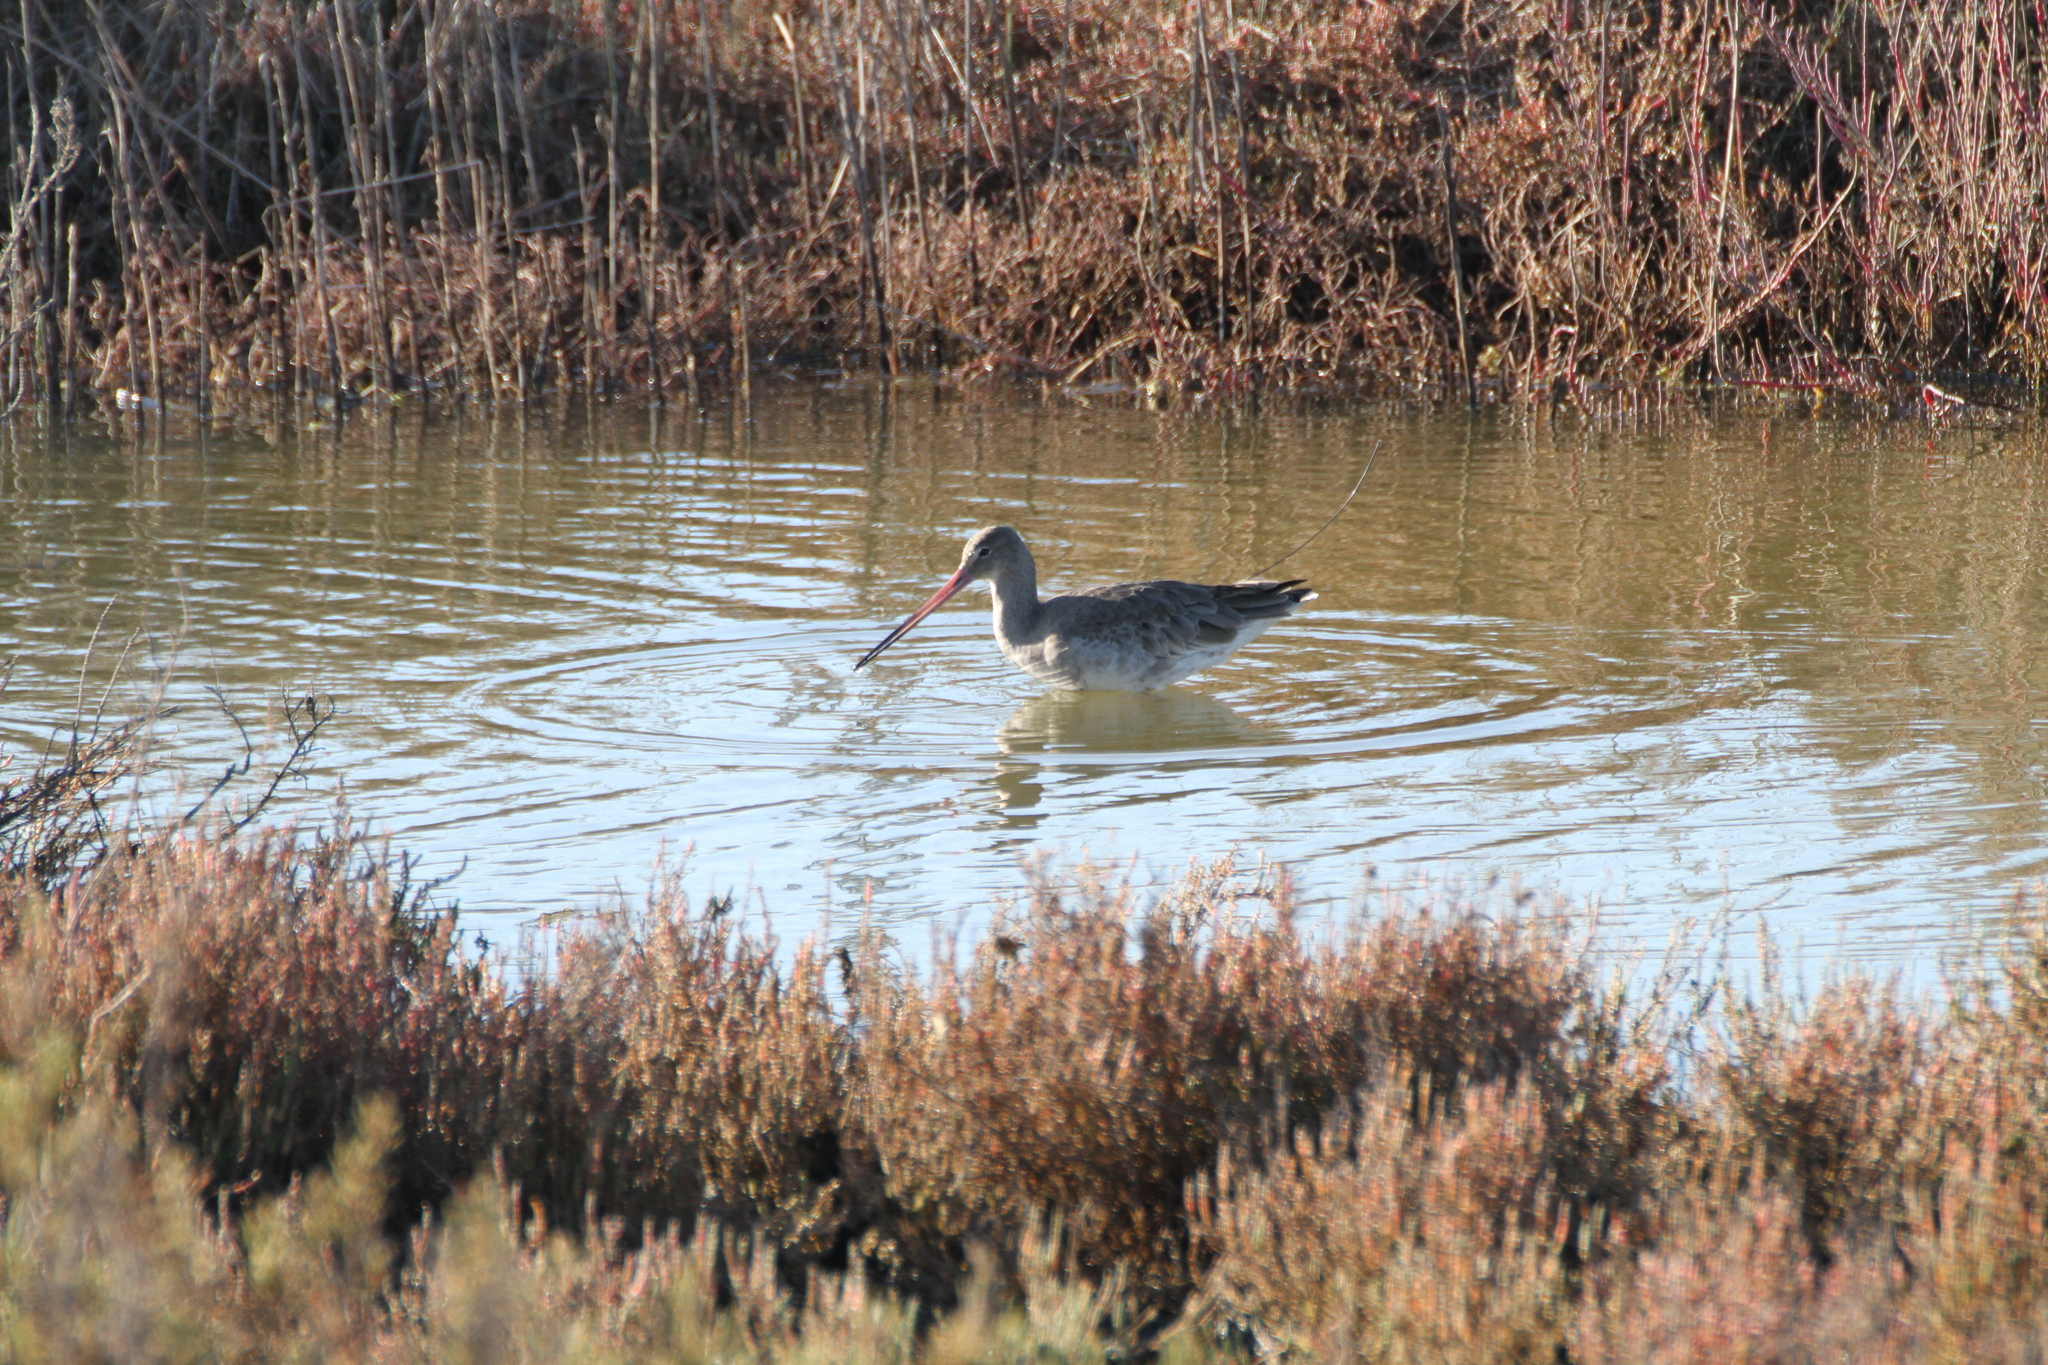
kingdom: Animalia
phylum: Chordata
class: Aves
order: Charadriiformes
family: Scolopacidae
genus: Limosa
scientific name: Limosa limosa
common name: Black-tailed godwit
